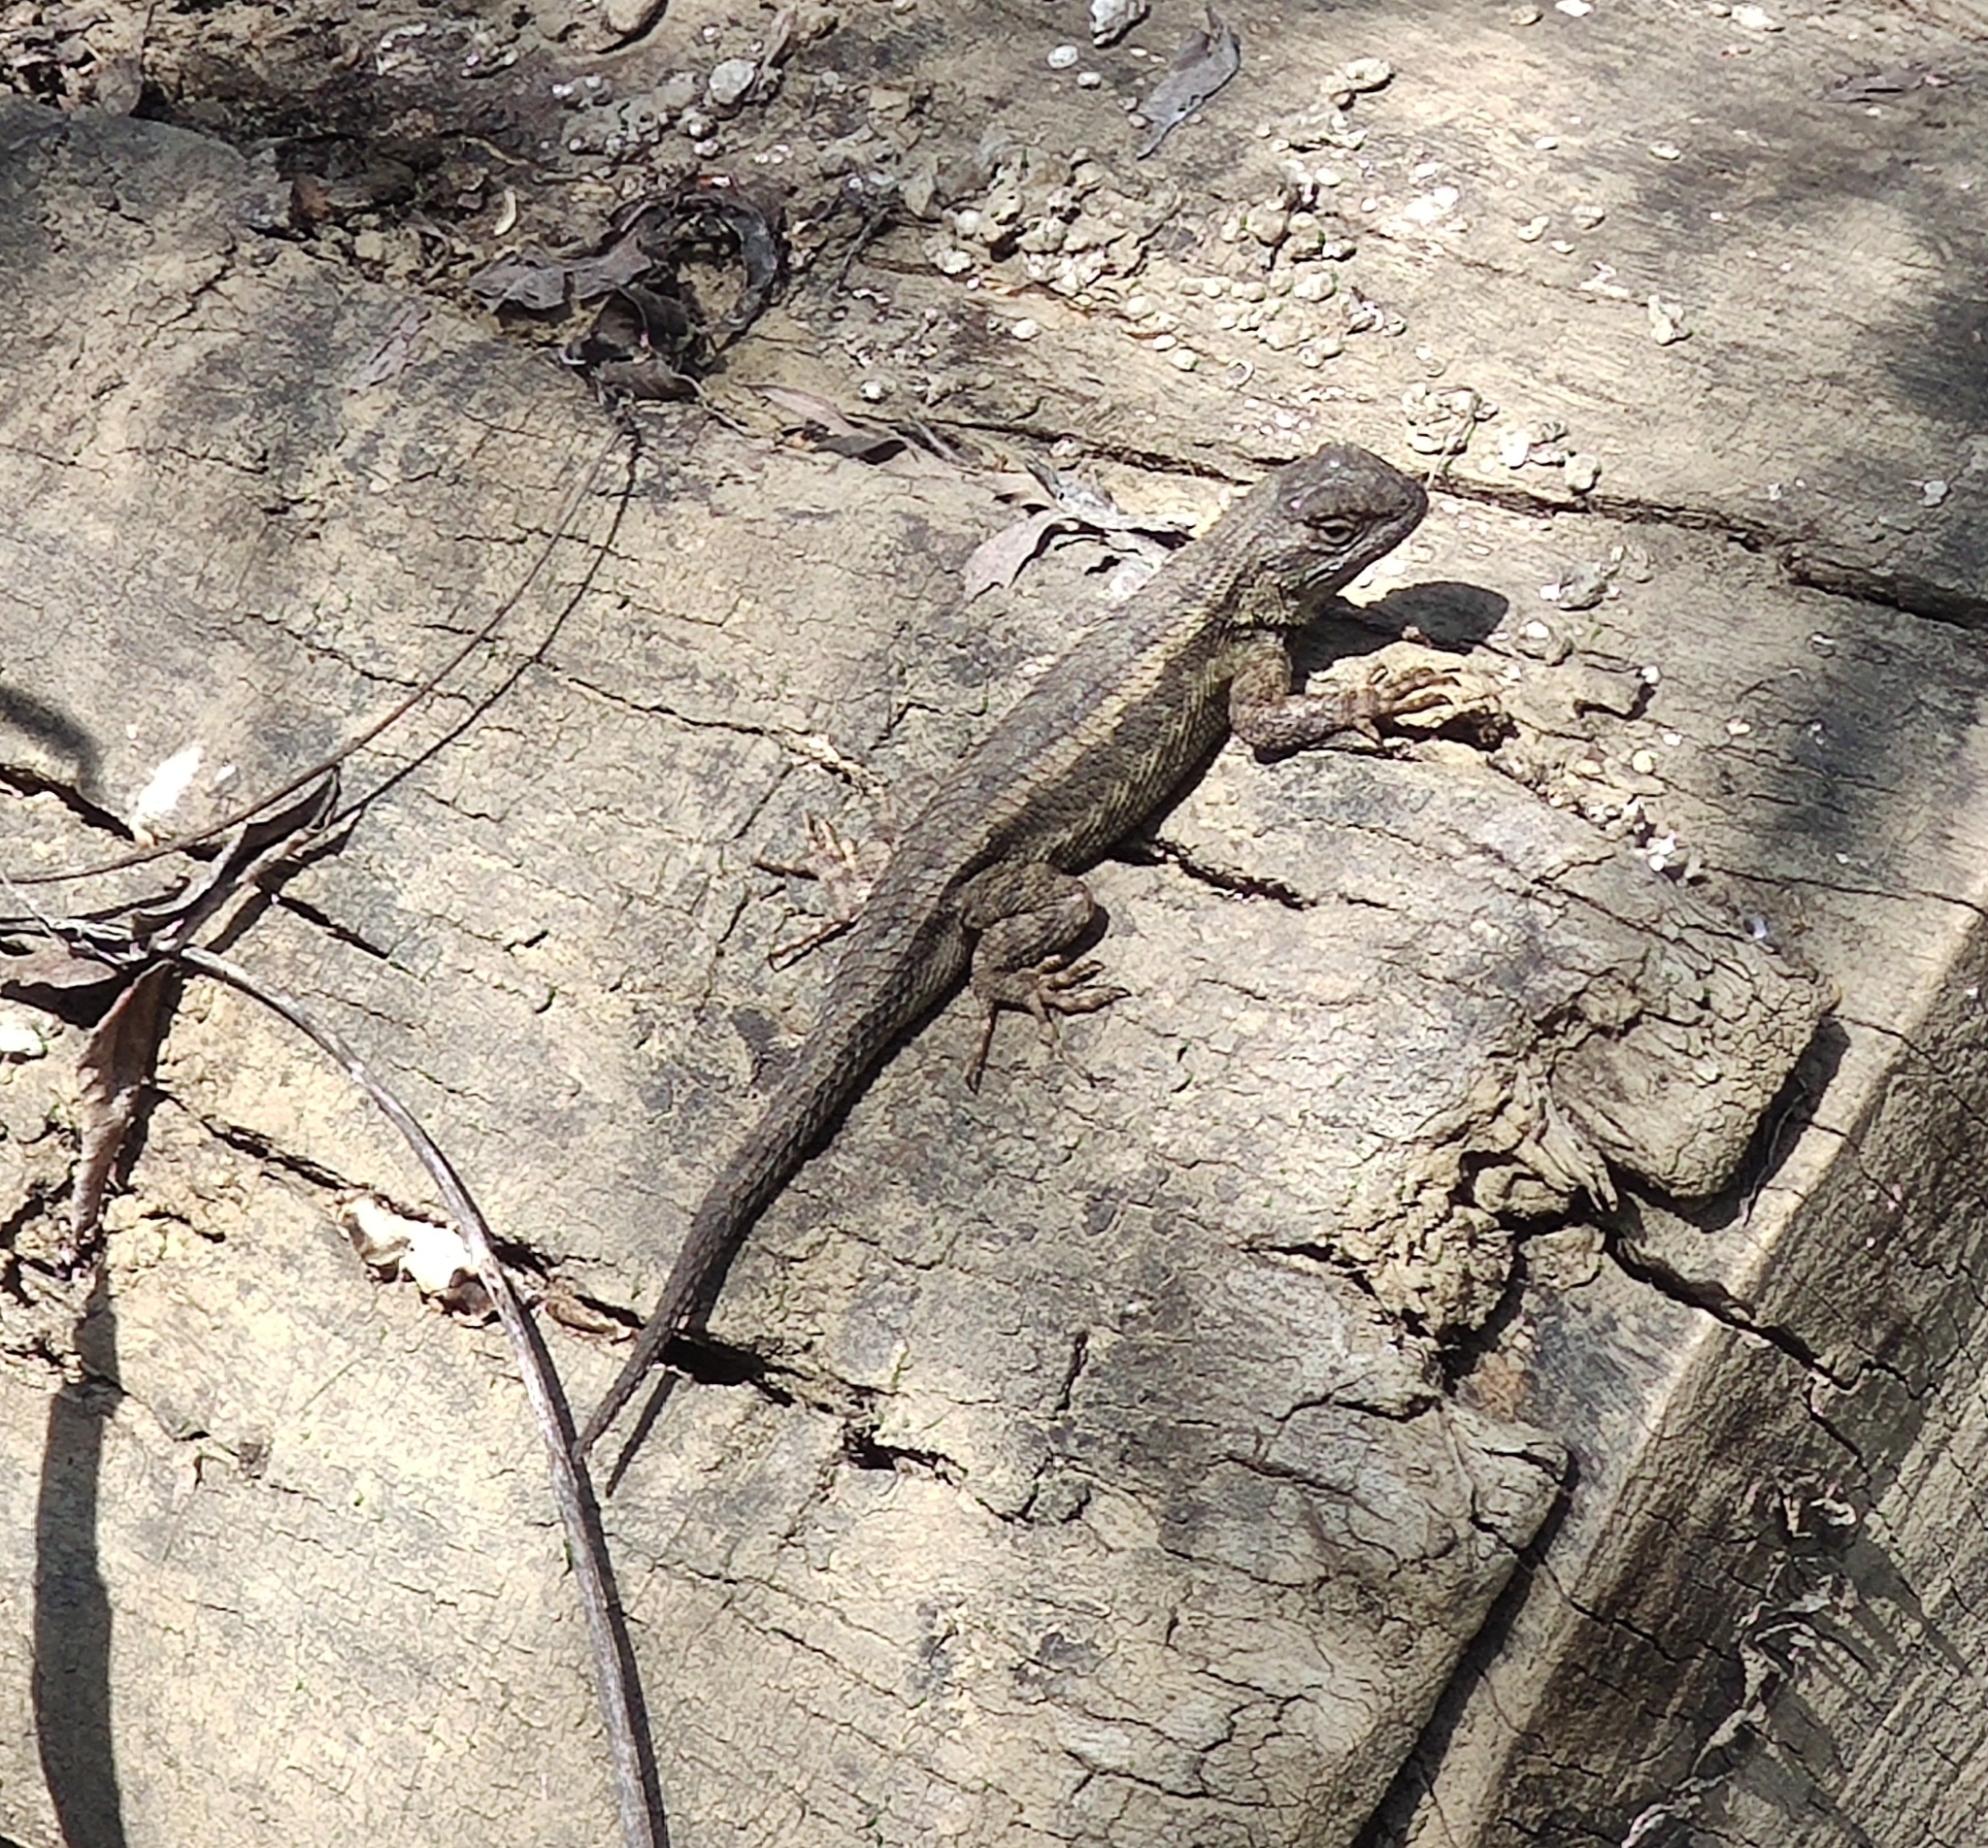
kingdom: Animalia
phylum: Chordata
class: Squamata
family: Phrynosomatidae
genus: Sceloporus
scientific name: Sceloporus occidentalis
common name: Western fence lizard
